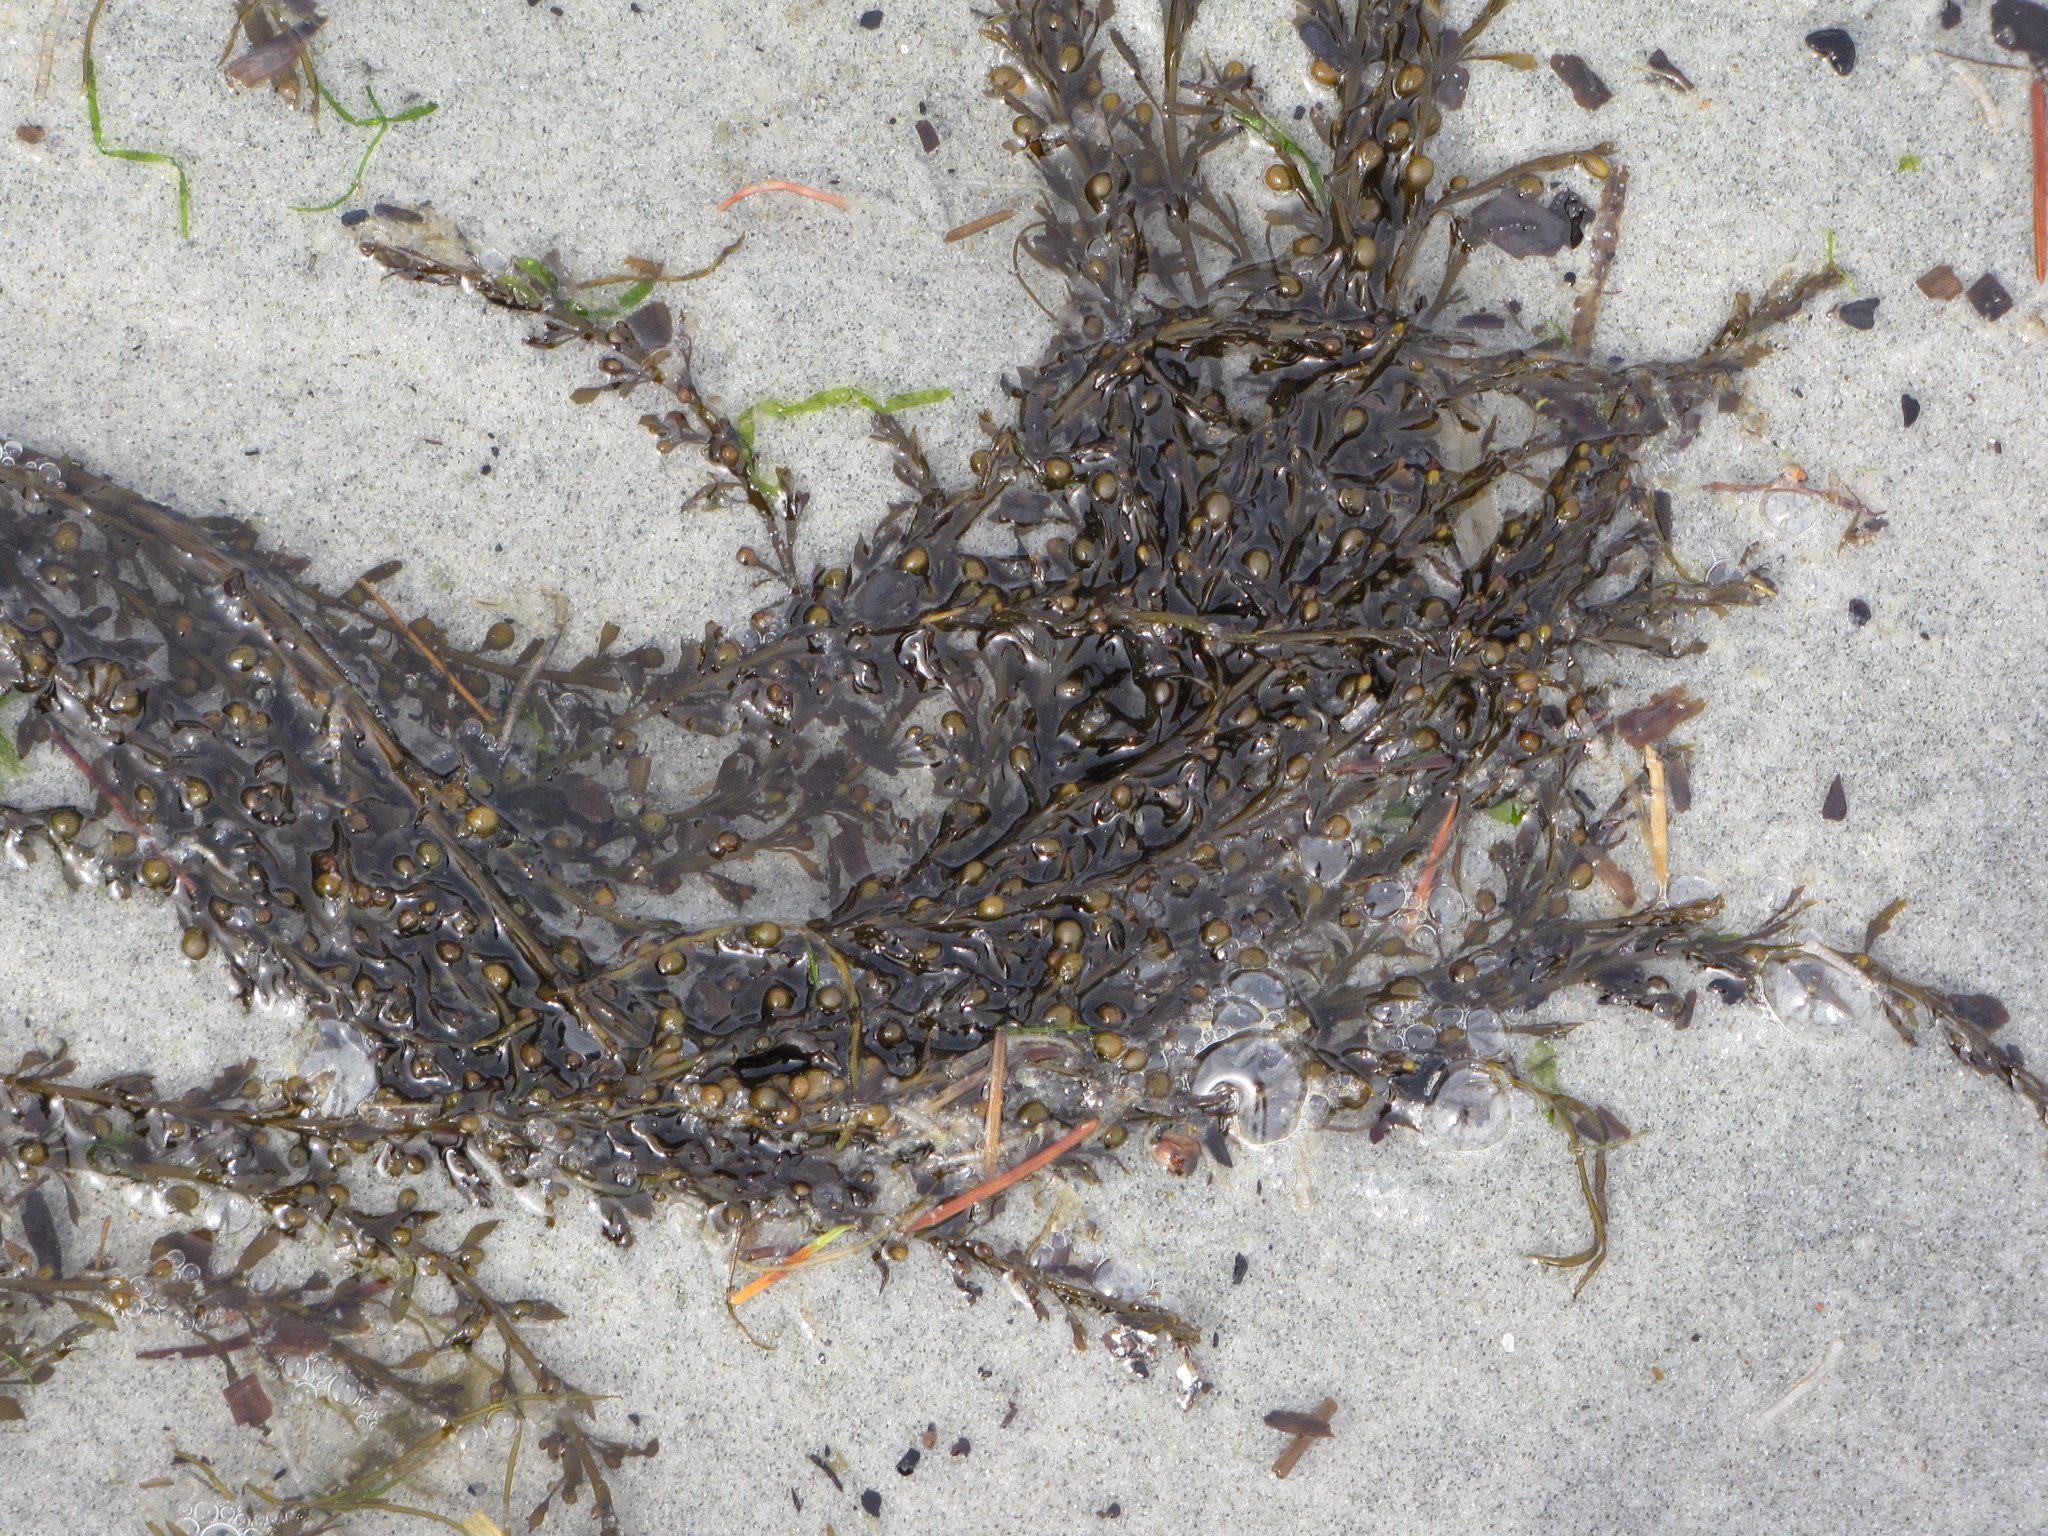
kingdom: Chromista
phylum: Ochrophyta
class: Phaeophyceae
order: Fucales
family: Sargassaceae
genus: Sargassum
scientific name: Sargassum muticum
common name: Japweed
